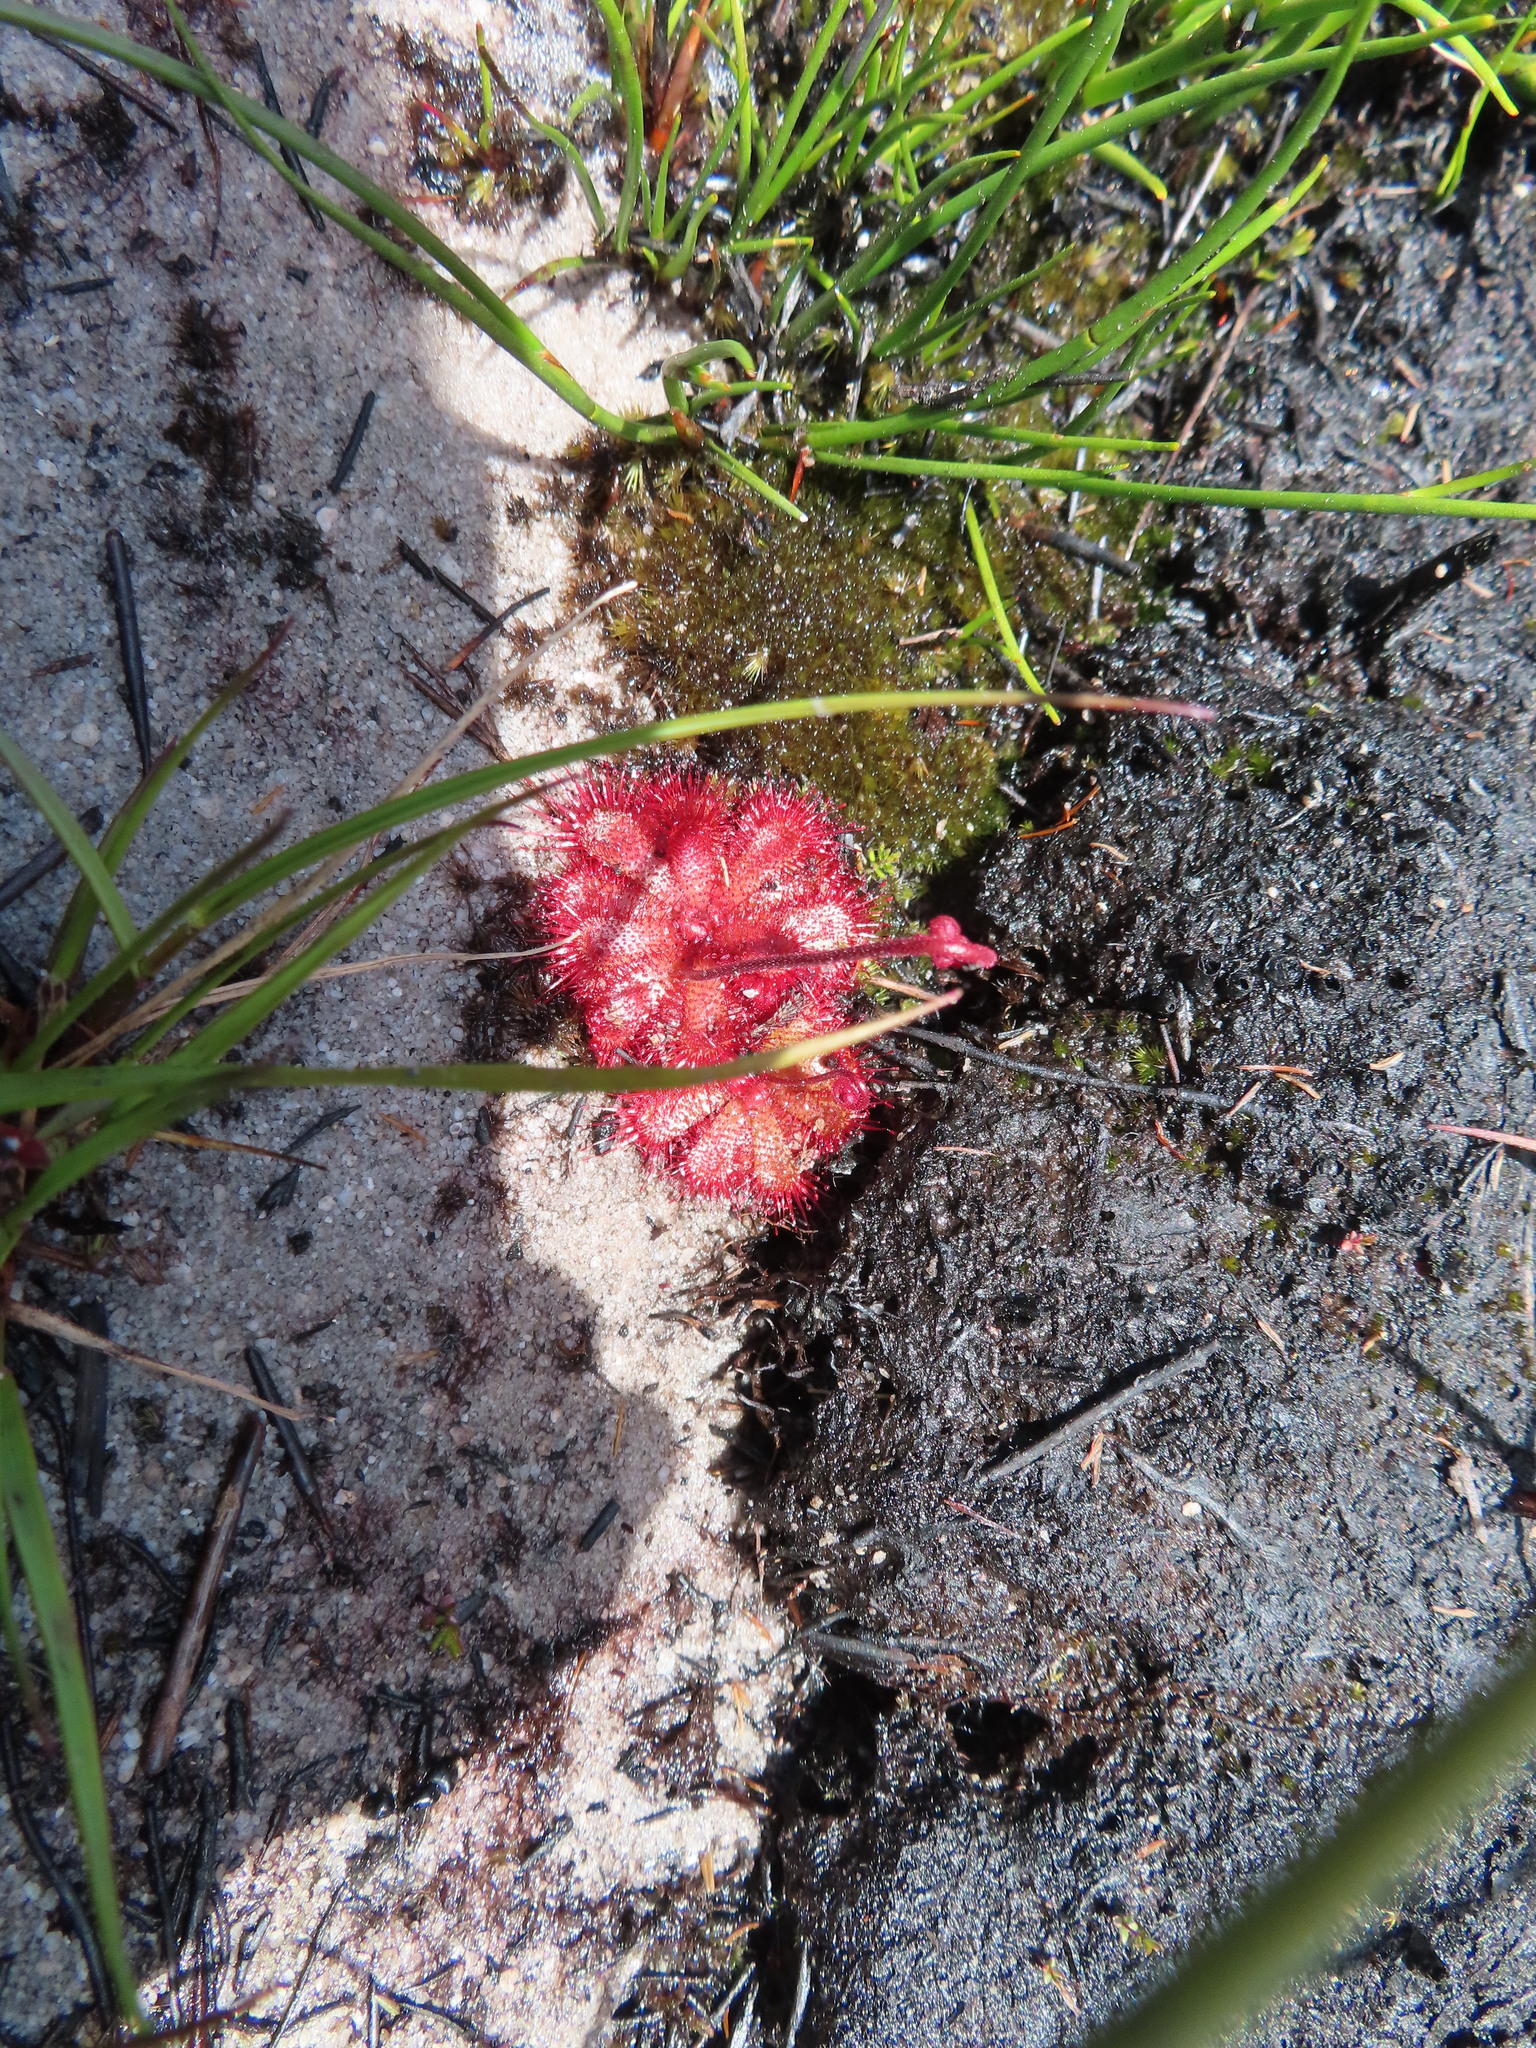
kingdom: Plantae
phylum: Tracheophyta
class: Magnoliopsida
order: Caryophyllales
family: Droseraceae
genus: Drosera
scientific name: Drosera cuneifolia
